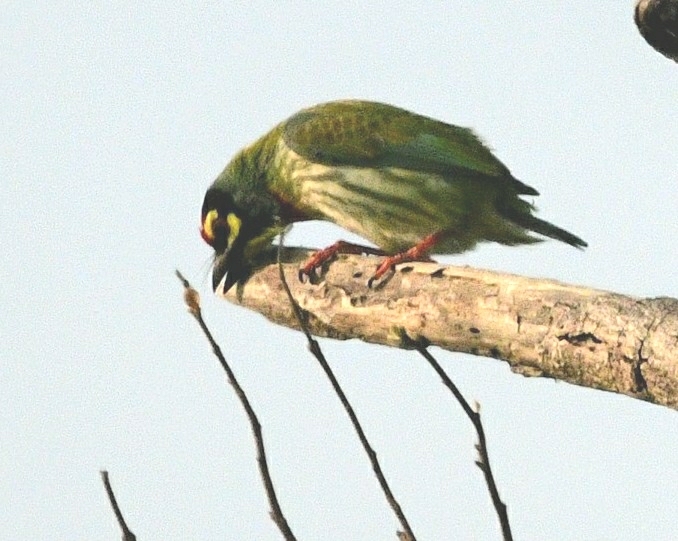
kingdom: Animalia
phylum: Chordata
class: Aves
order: Piciformes
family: Megalaimidae
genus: Psilopogon
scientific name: Psilopogon haemacephalus
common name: Coppersmith barbet
